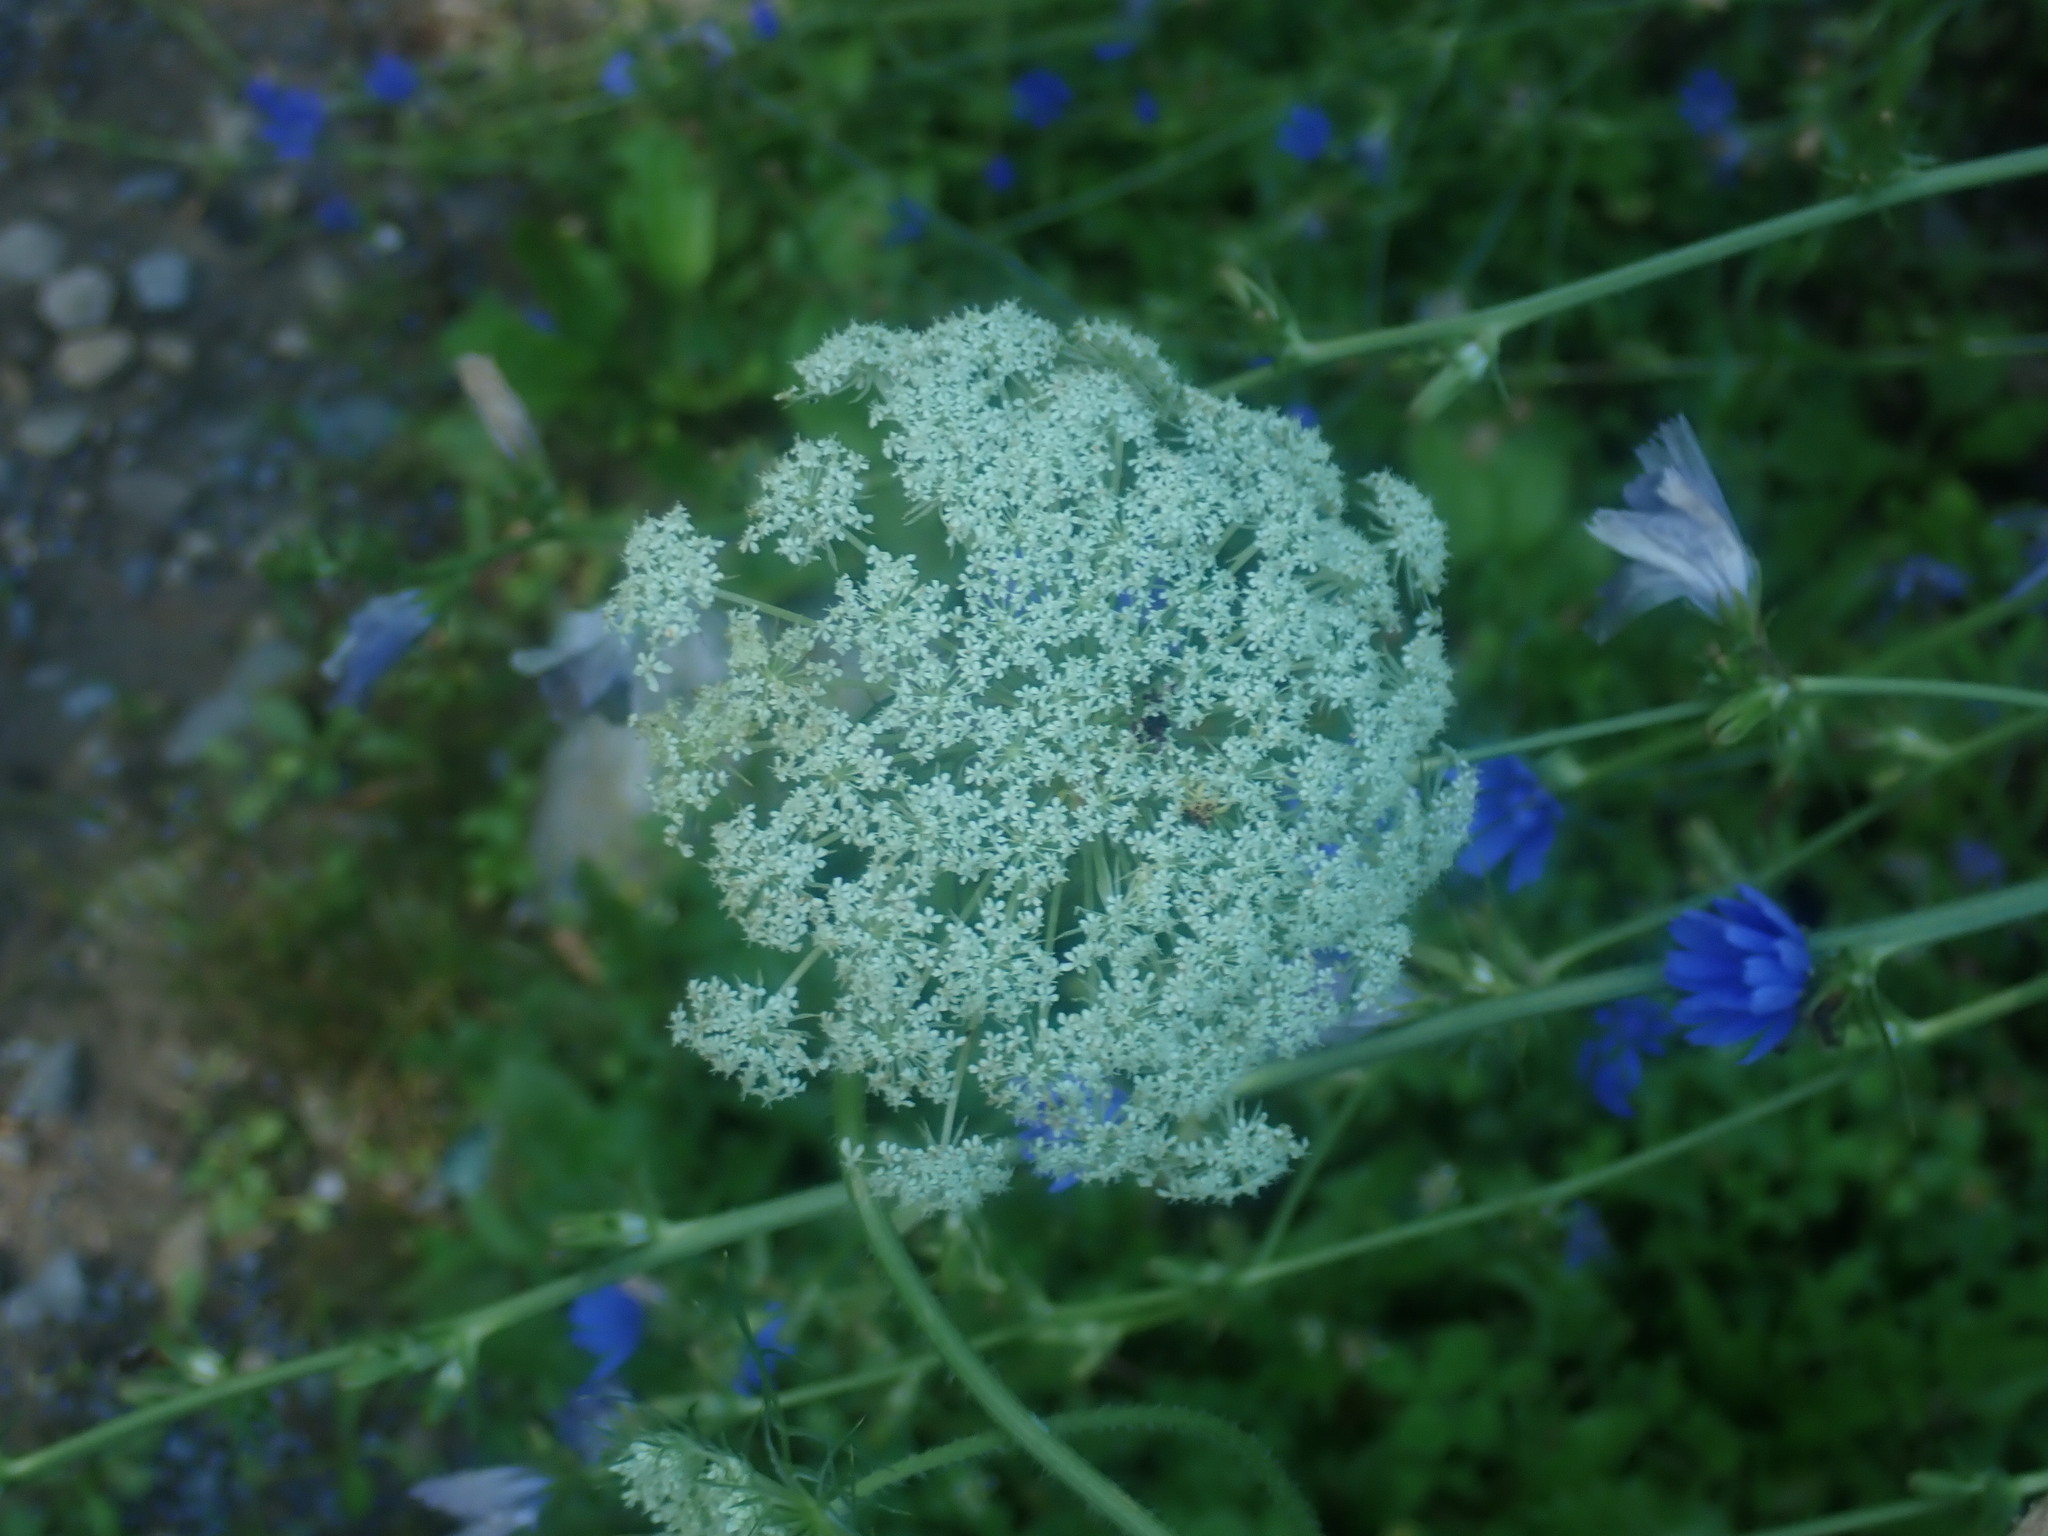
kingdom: Plantae
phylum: Tracheophyta
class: Magnoliopsida
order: Apiales
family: Apiaceae
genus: Daucus
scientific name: Daucus carota
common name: Wild carrot
